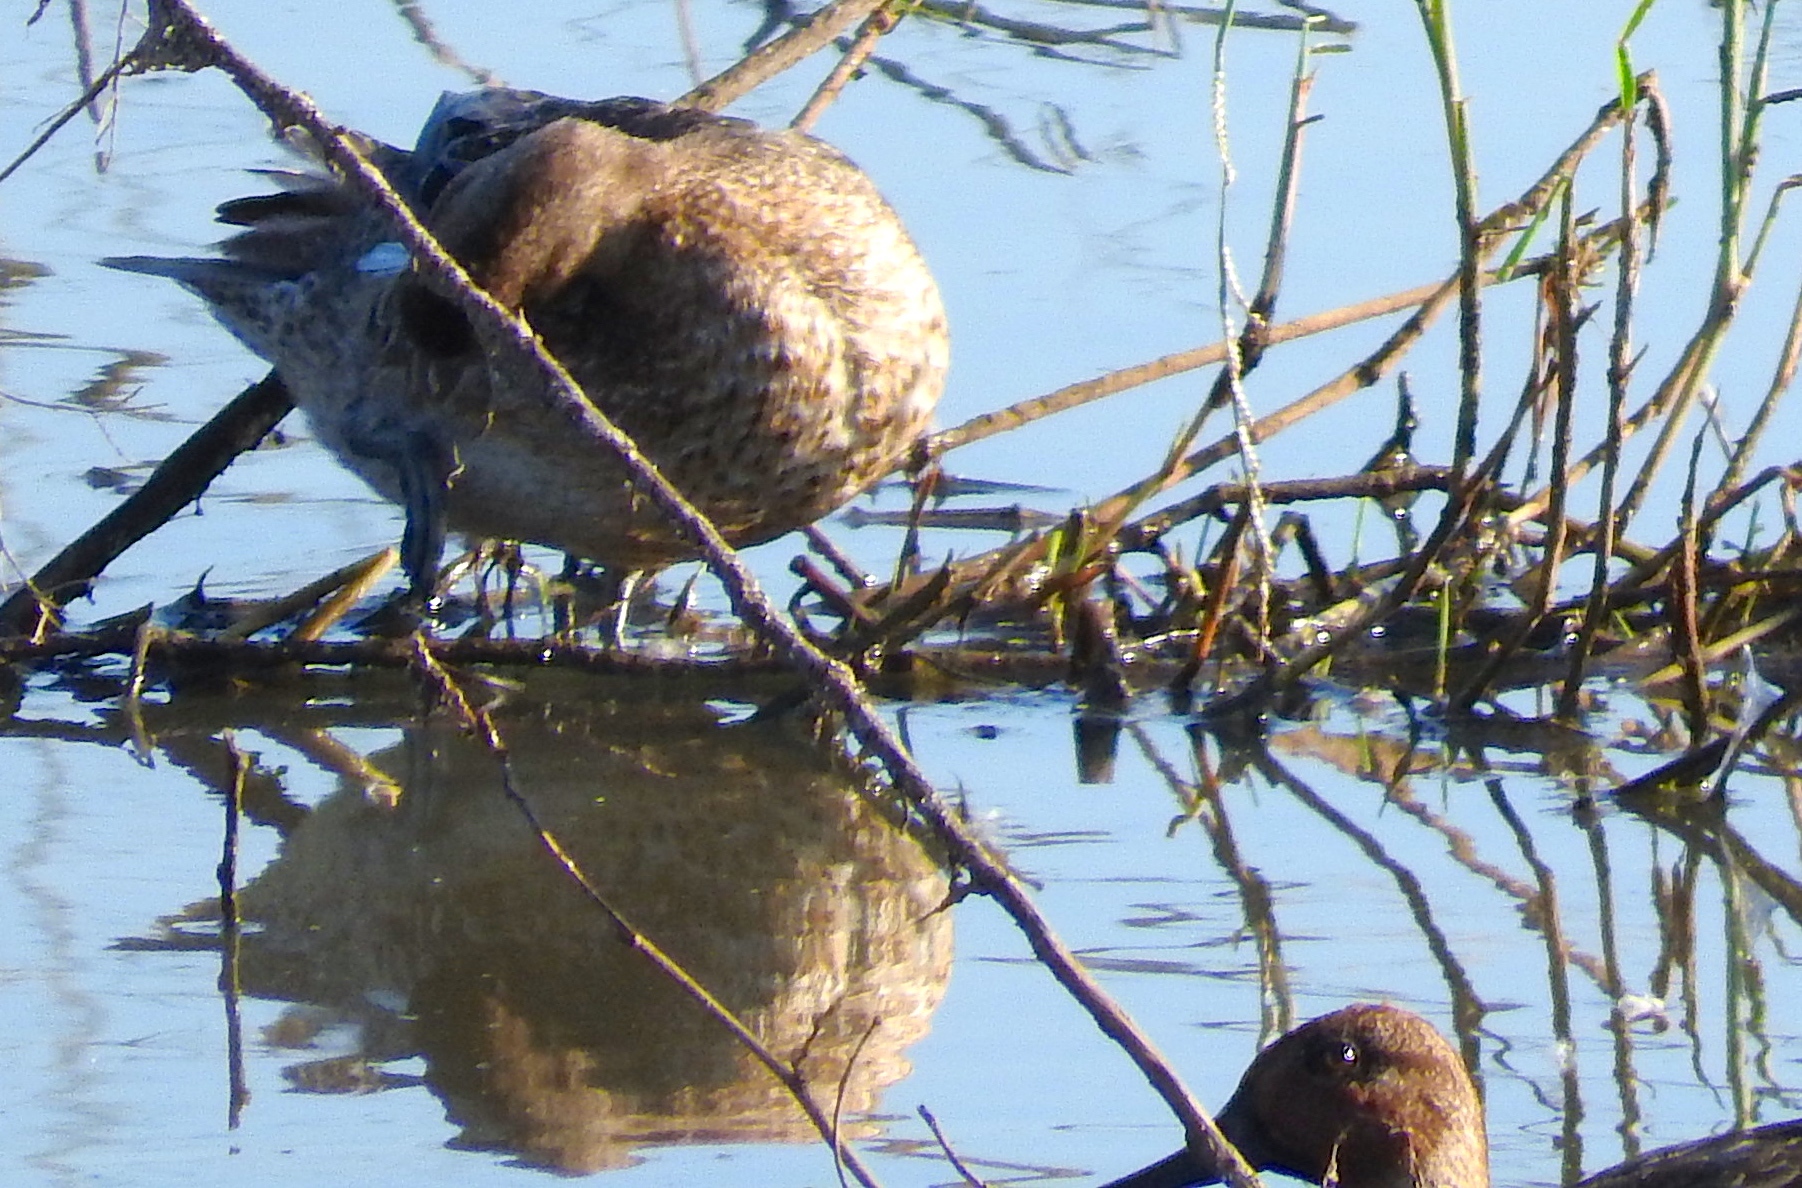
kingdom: Animalia
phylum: Chordata
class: Aves
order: Anseriformes
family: Anatidae
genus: Spatula
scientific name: Spatula discors
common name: Blue-winged teal
